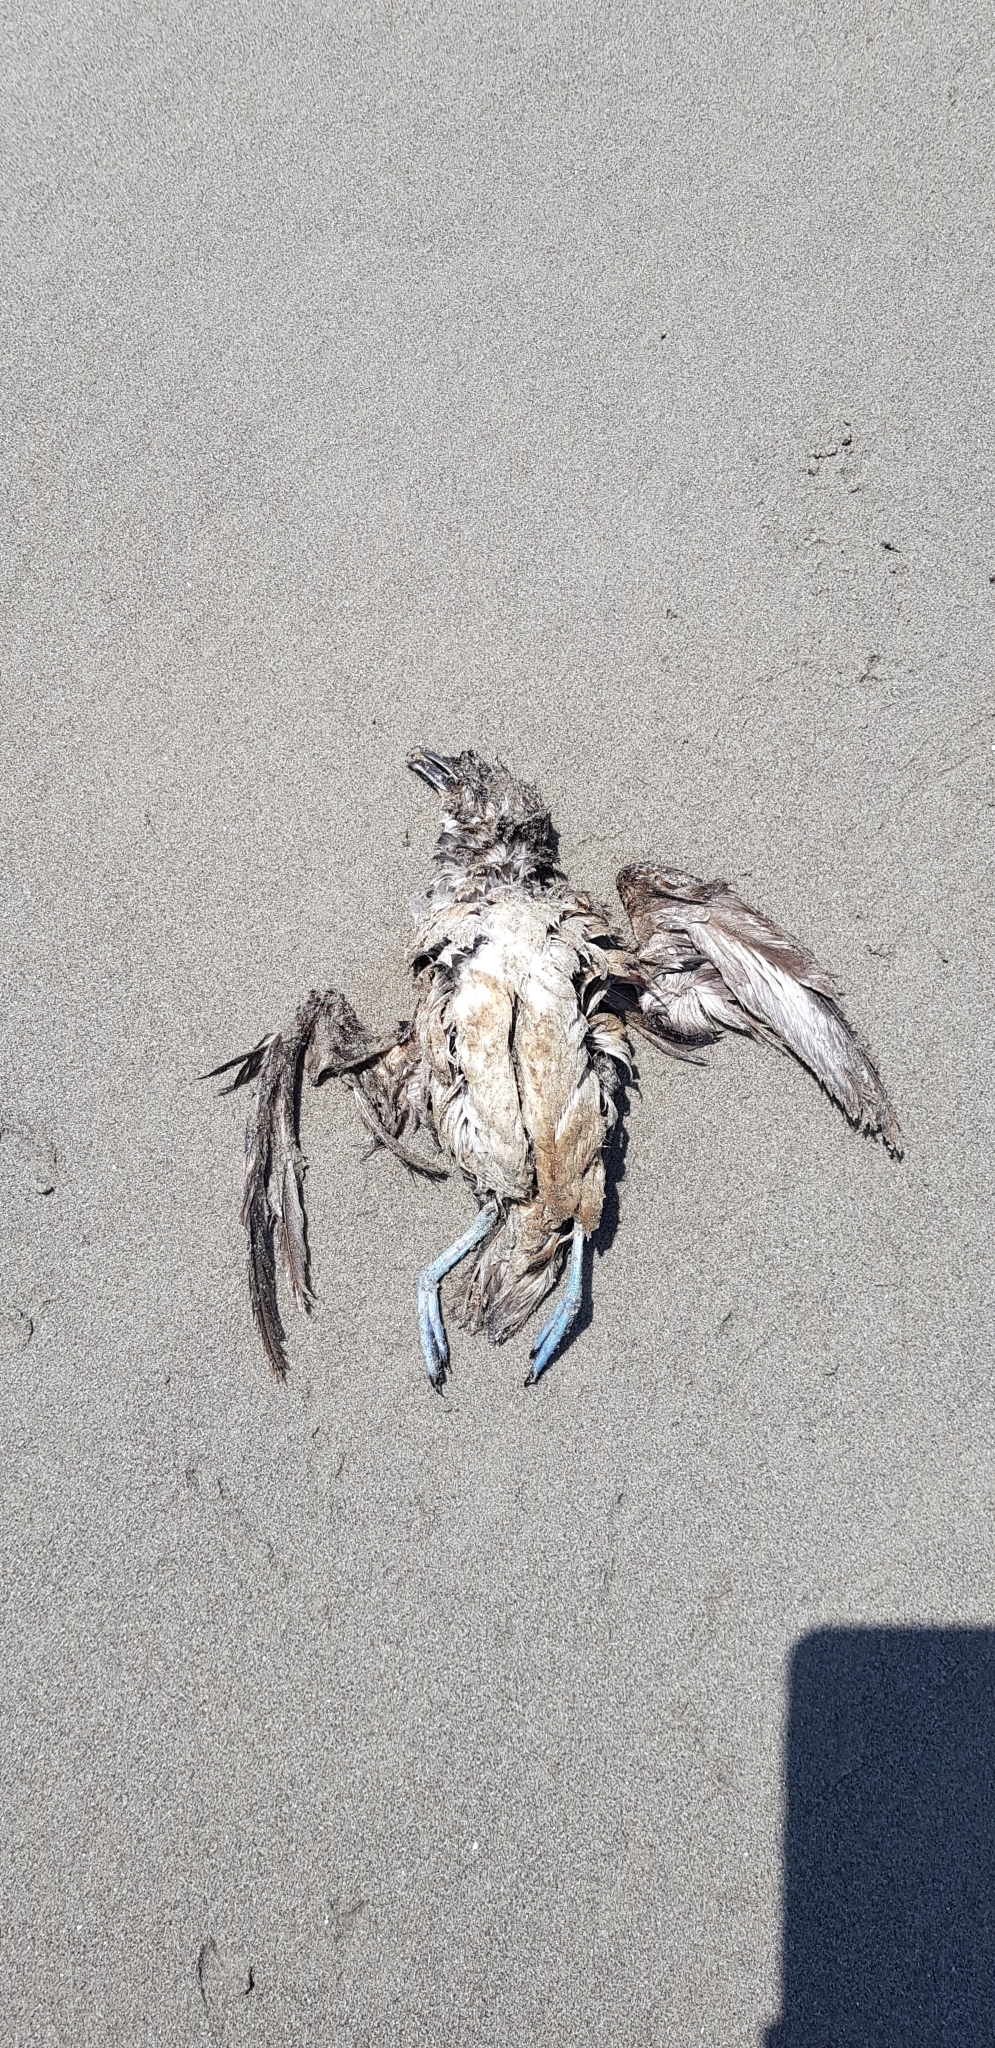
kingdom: Animalia
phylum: Chordata
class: Aves
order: Procellariiformes
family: Pelecanoididae
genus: Pelecanoides
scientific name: Pelecanoides urinatrix
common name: Common diving-petrel
